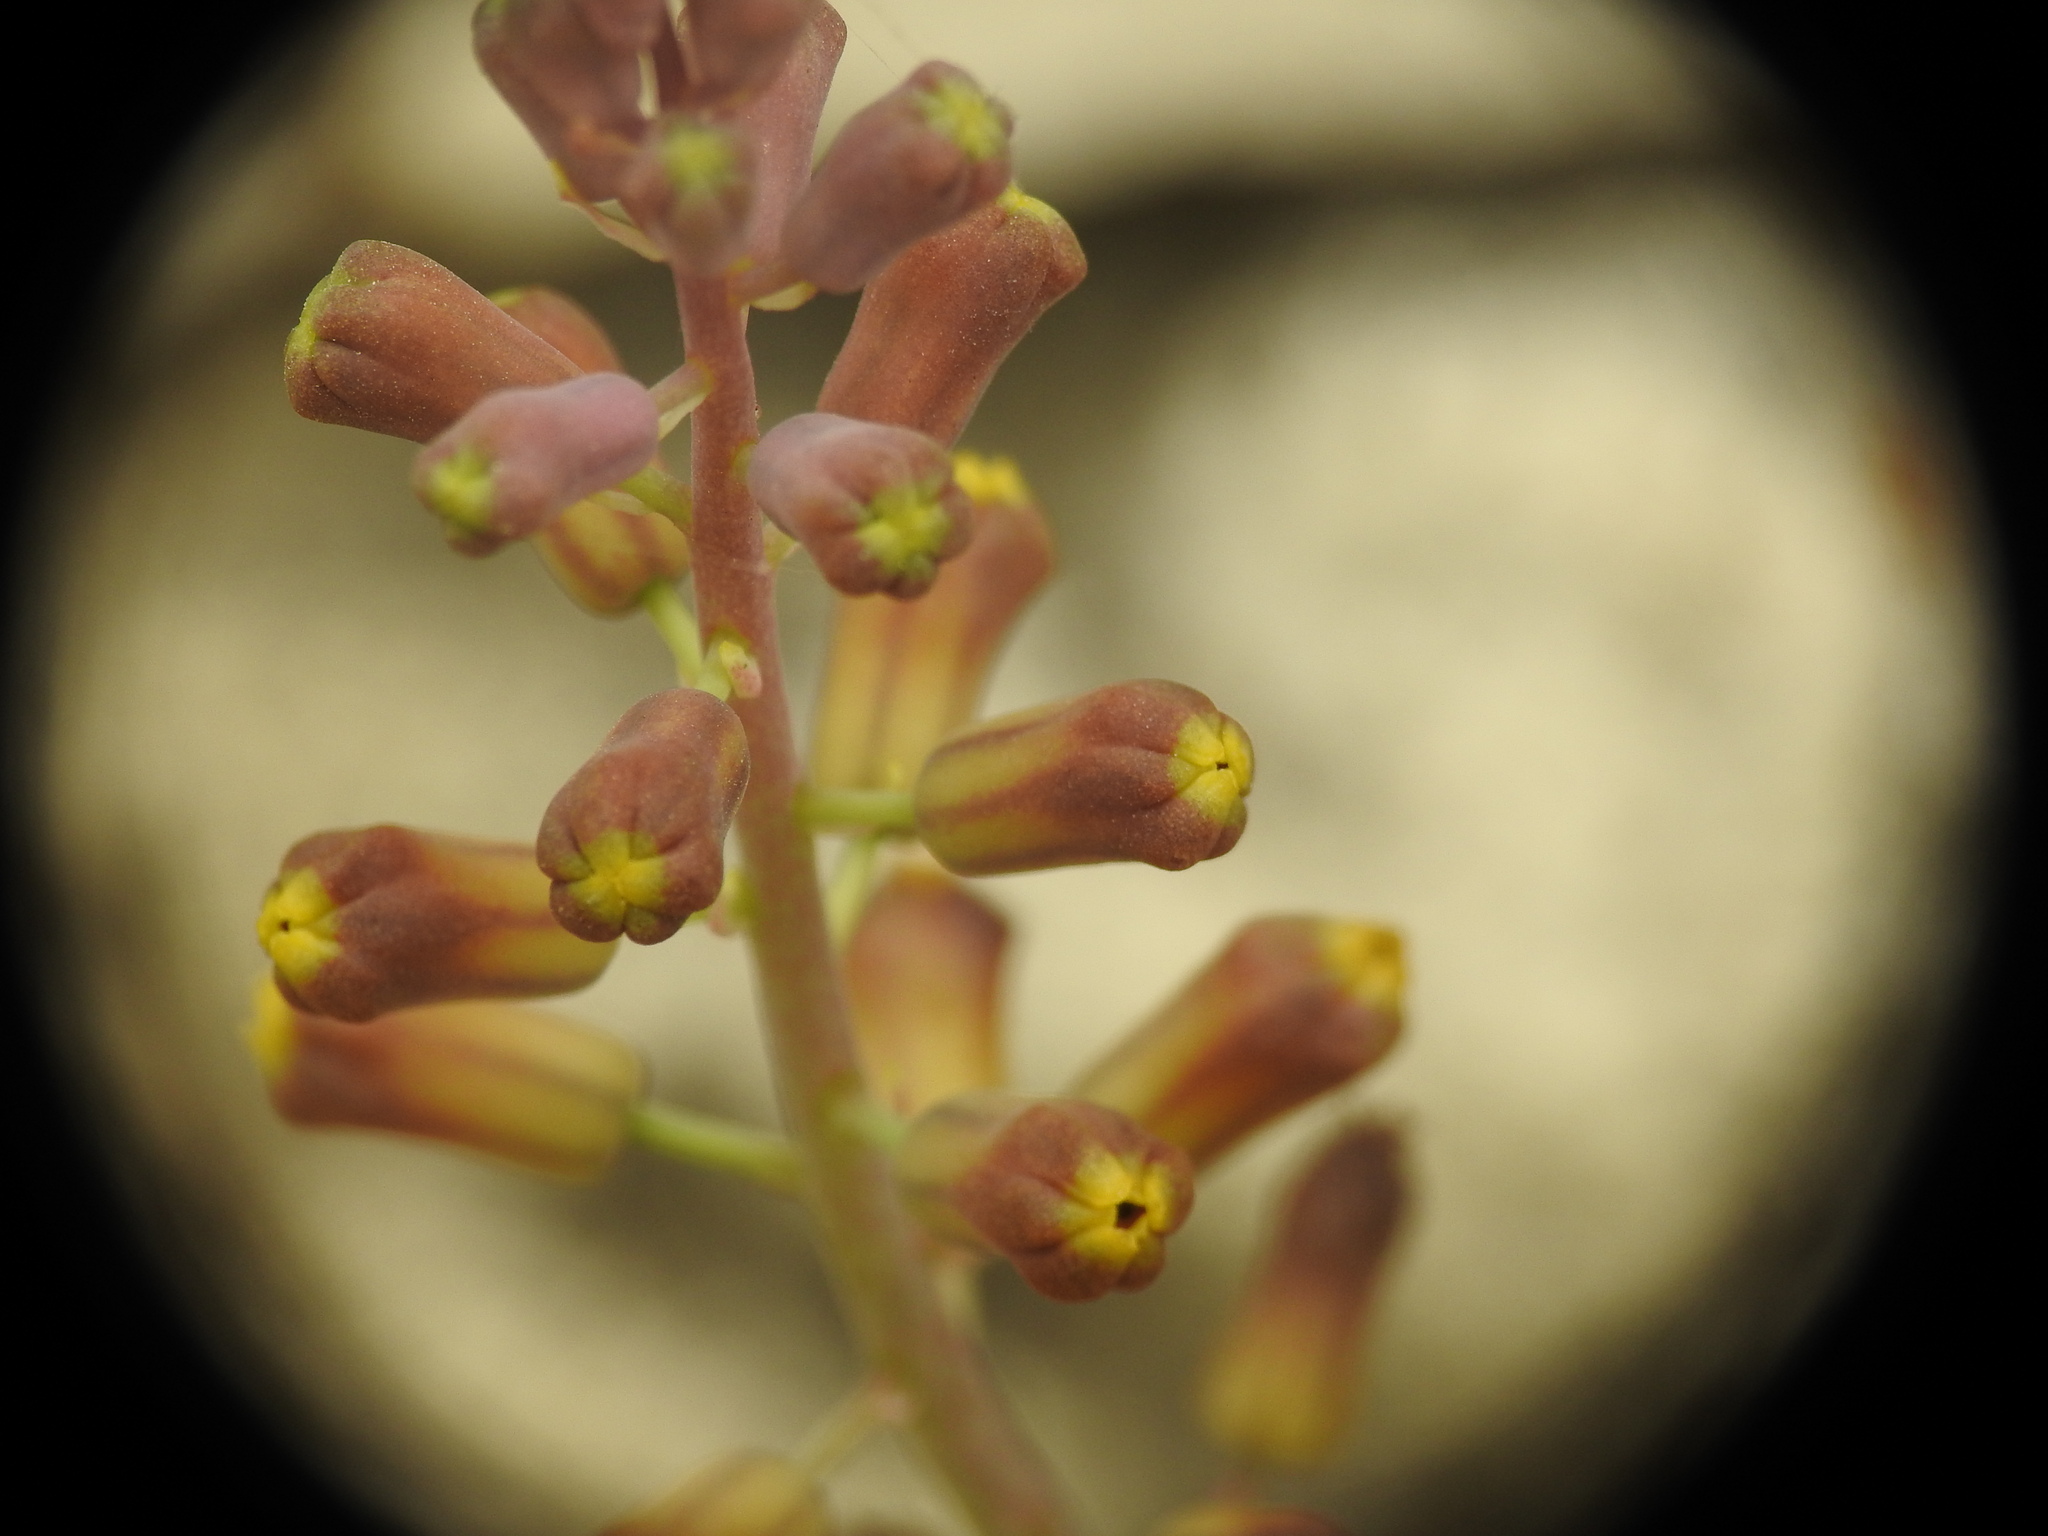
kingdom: Plantae
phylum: Tracheophyta
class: Liliopsida
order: Asparagales
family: Asparagaceae
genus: Muscari
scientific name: Muscari spreitzenhoferi
